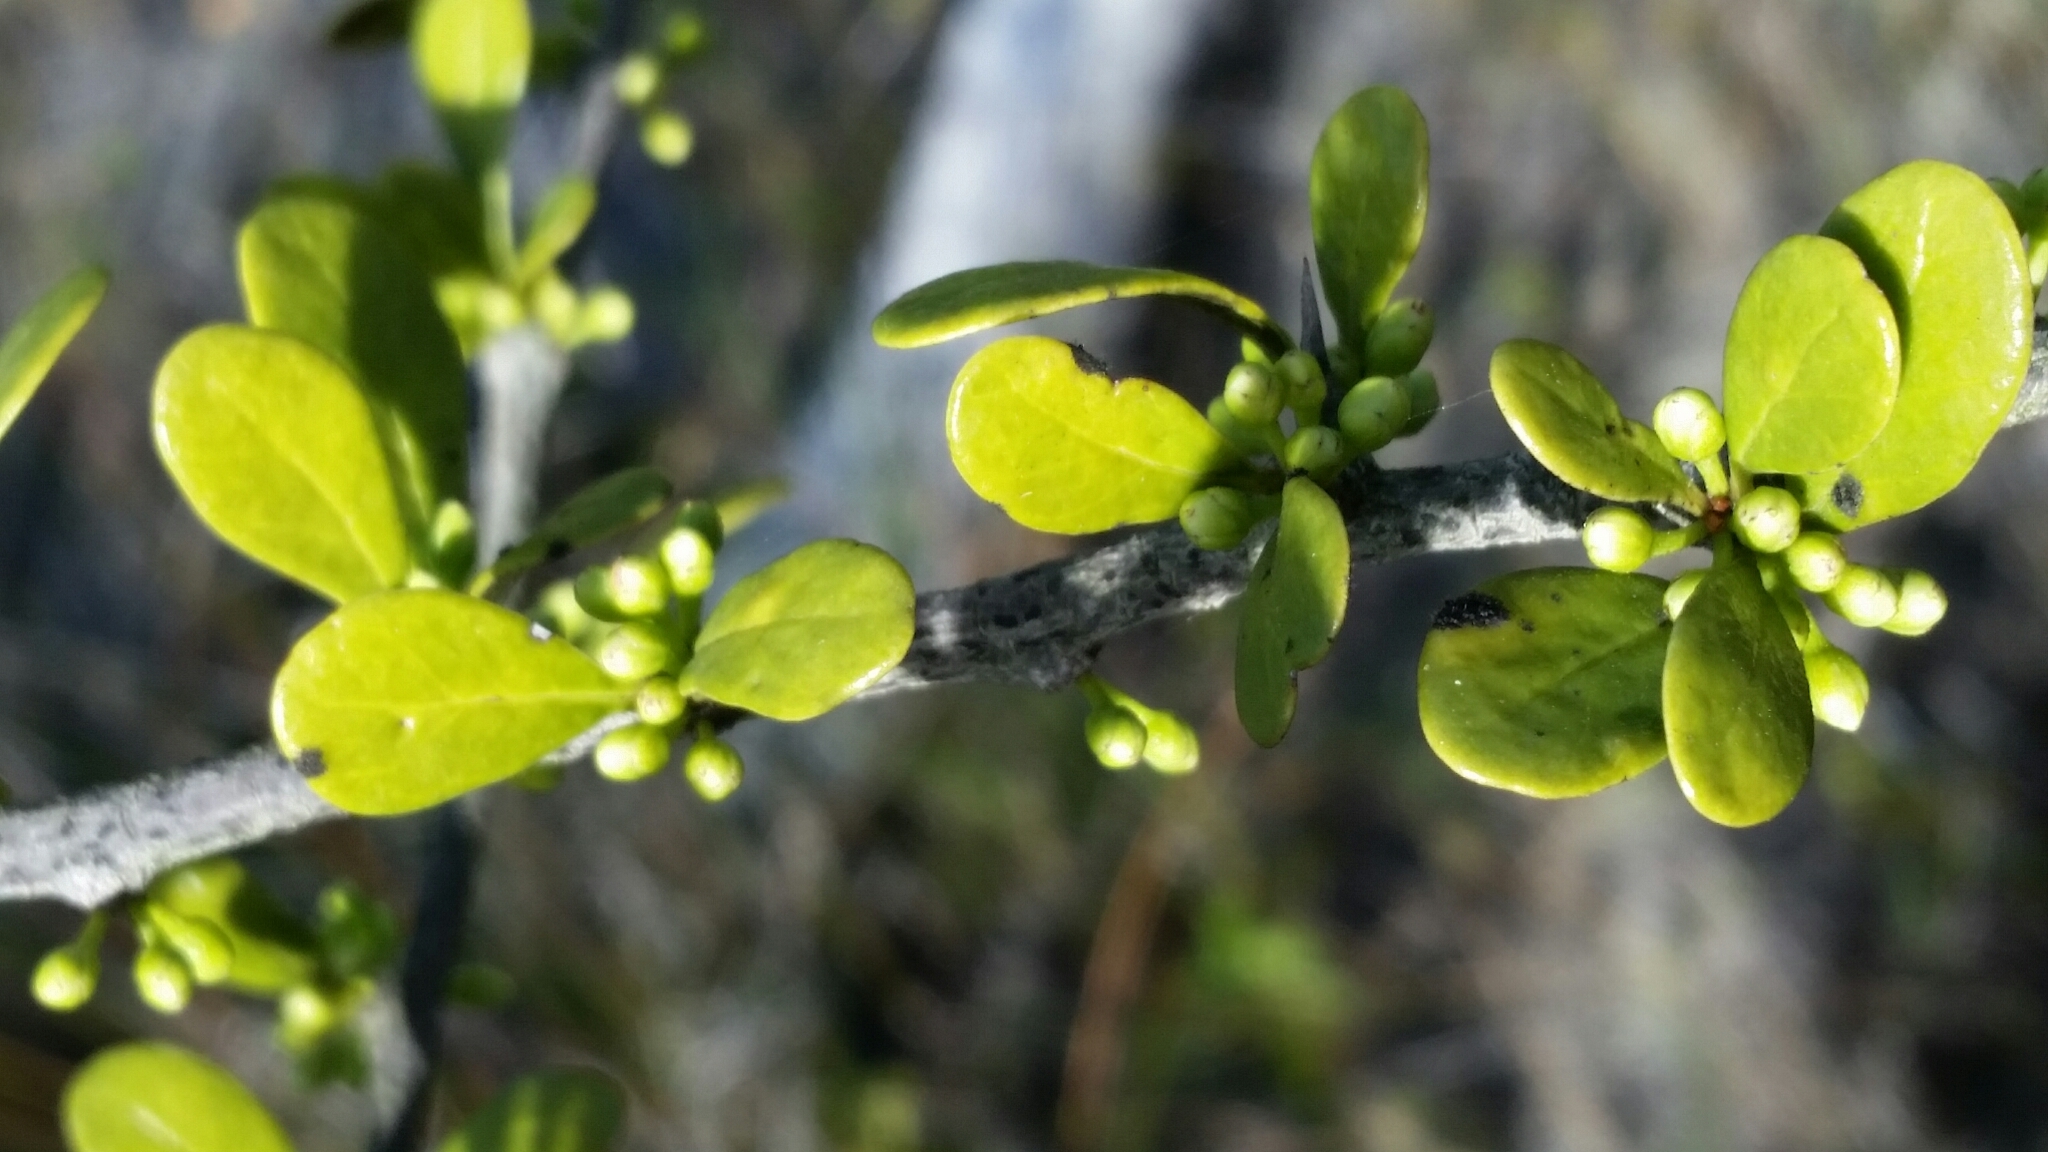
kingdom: Plantae
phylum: Tracheophyta
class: Magnoliopsida
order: Ericales
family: Sapotaceae
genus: Sideroxylon
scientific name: Sideroxylon celastrinum
